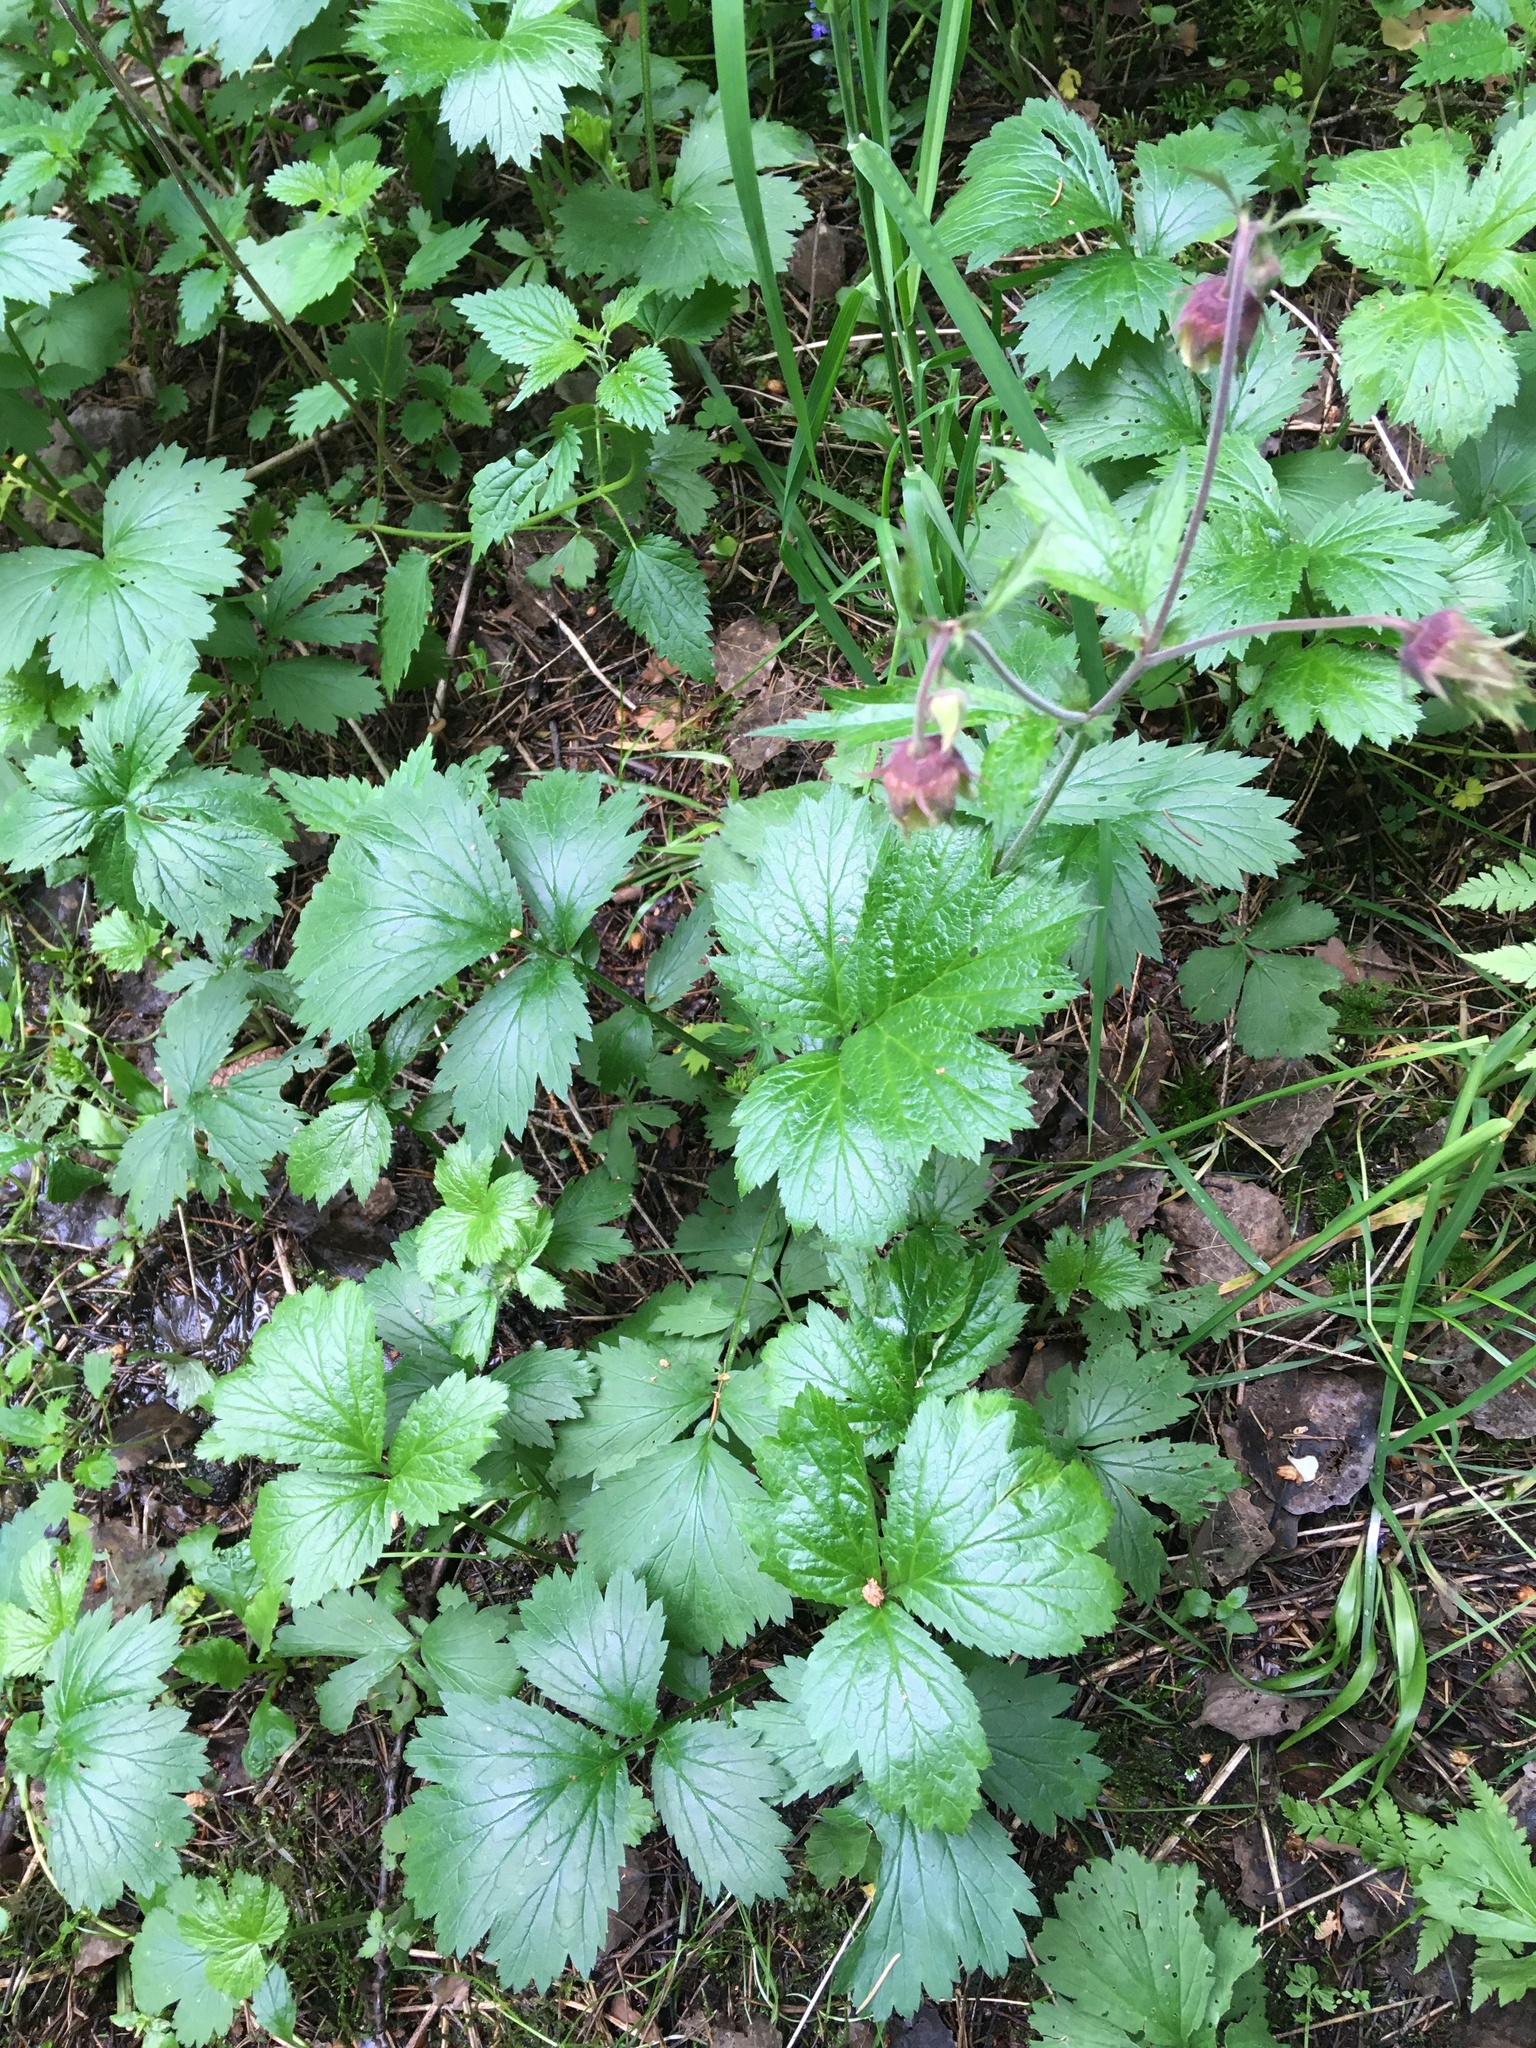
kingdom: Plantae
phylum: Tracheophyta
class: Magnoliopsida
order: Rosales
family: Rosaceae
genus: Geum
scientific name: Geum rivale
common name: Water avens
